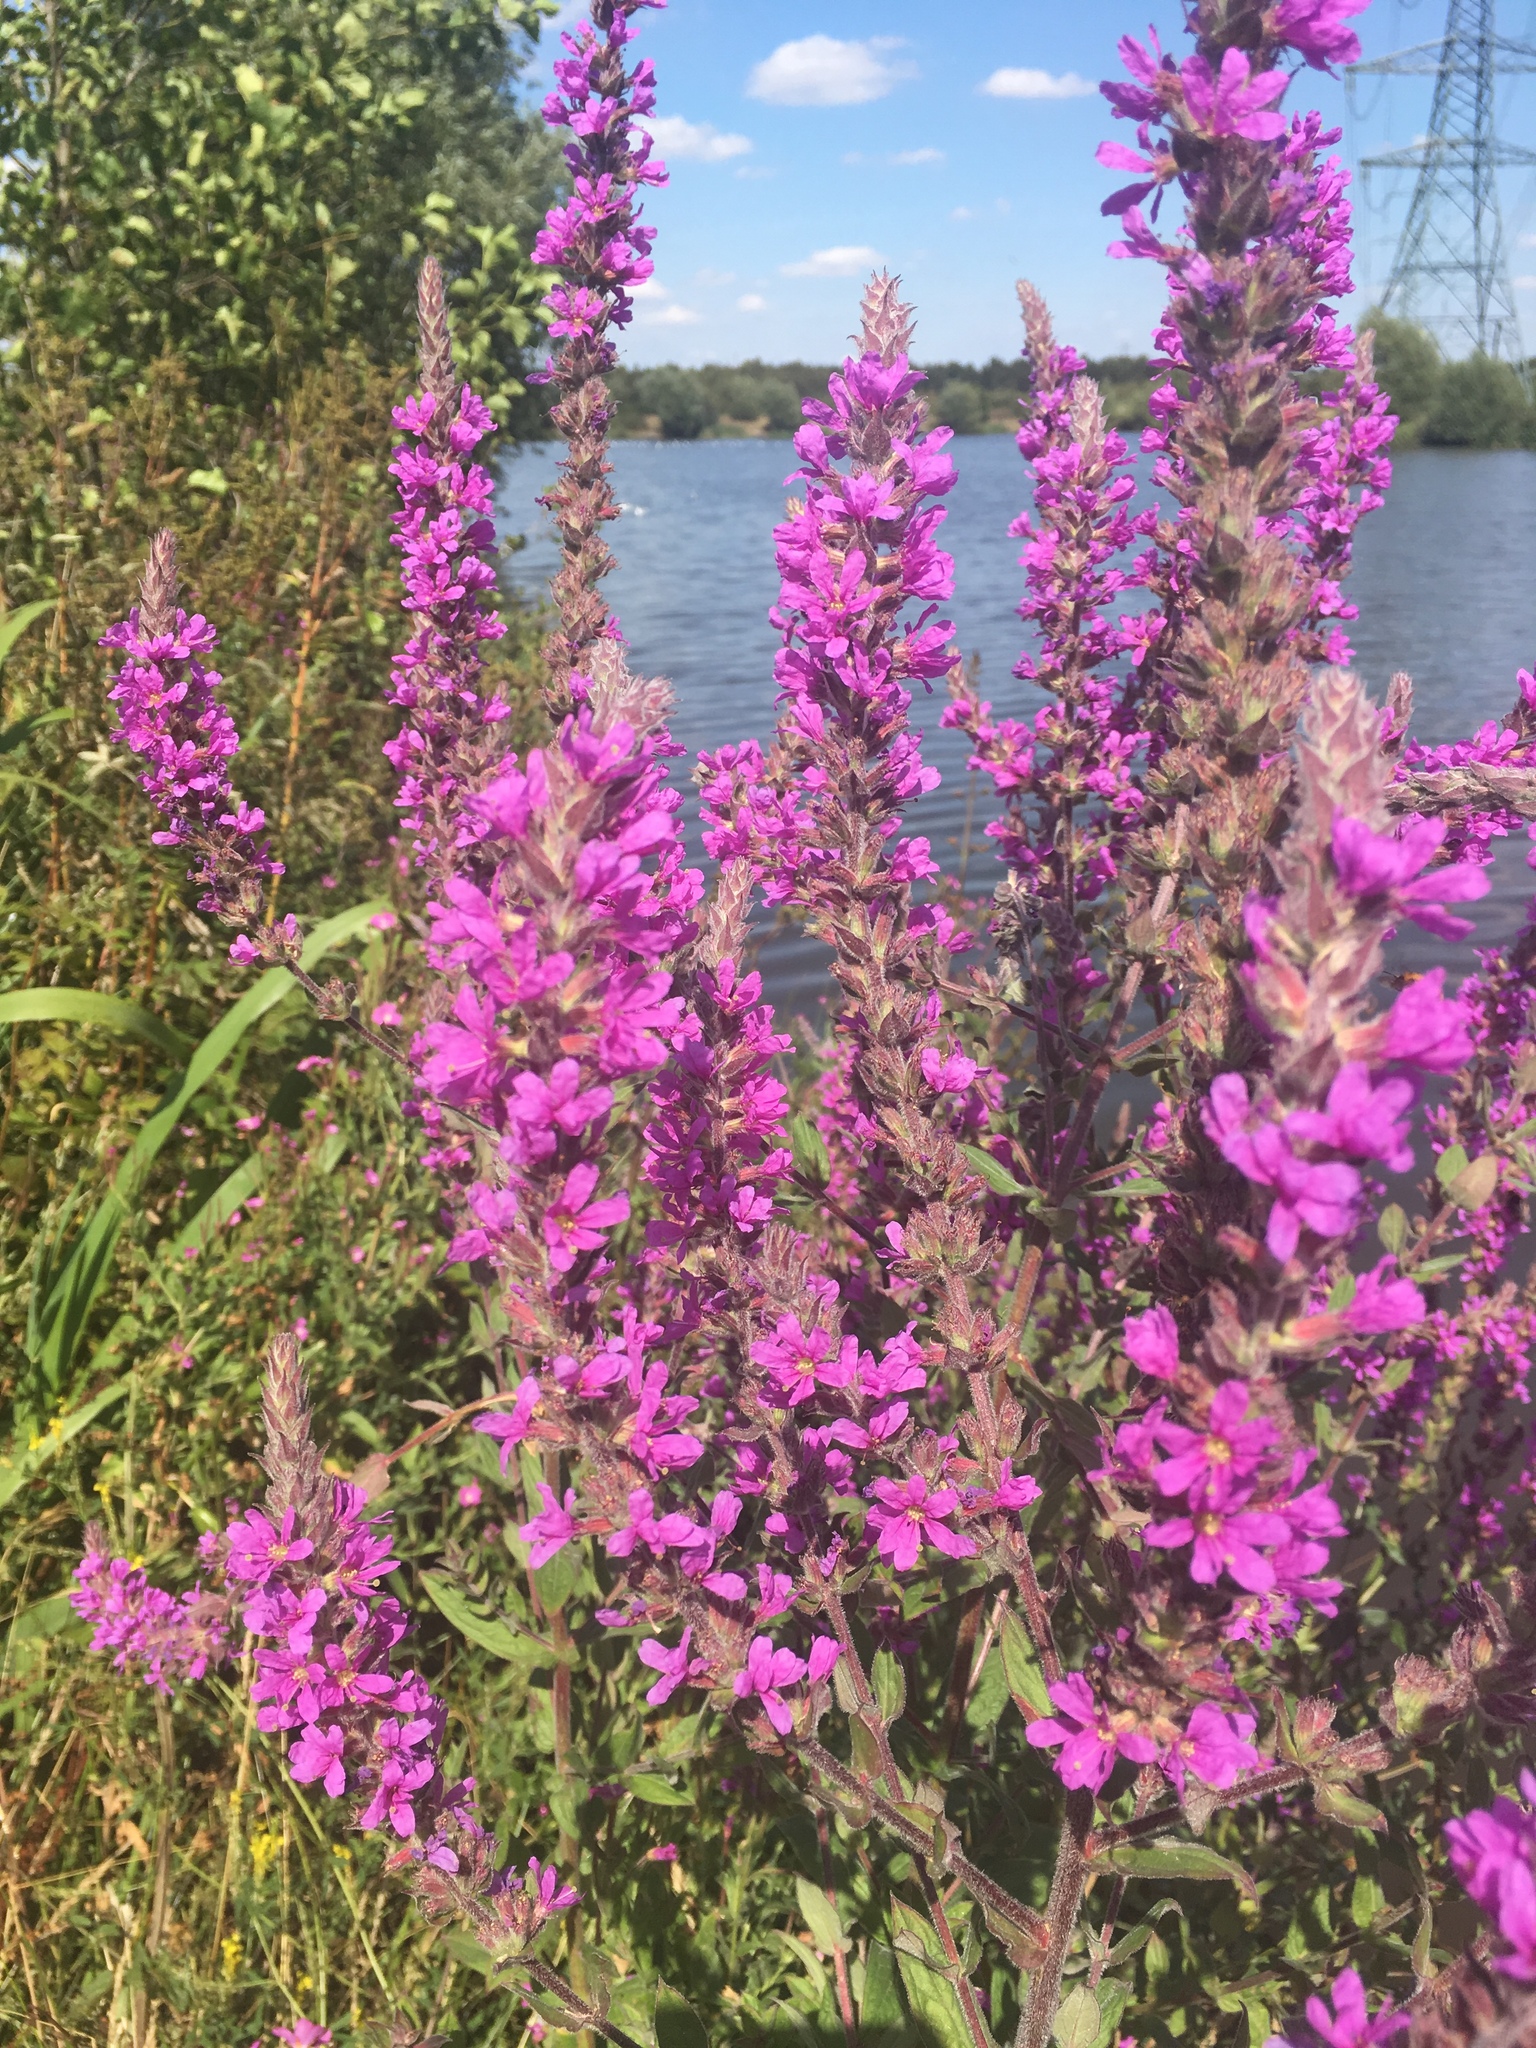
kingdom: Plantae
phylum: Tracheophyta
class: Magnoliopsida
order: Myrtales
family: Lythraceae
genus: Lythrum
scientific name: Lythrum salicaria
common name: Purple loosestrife
